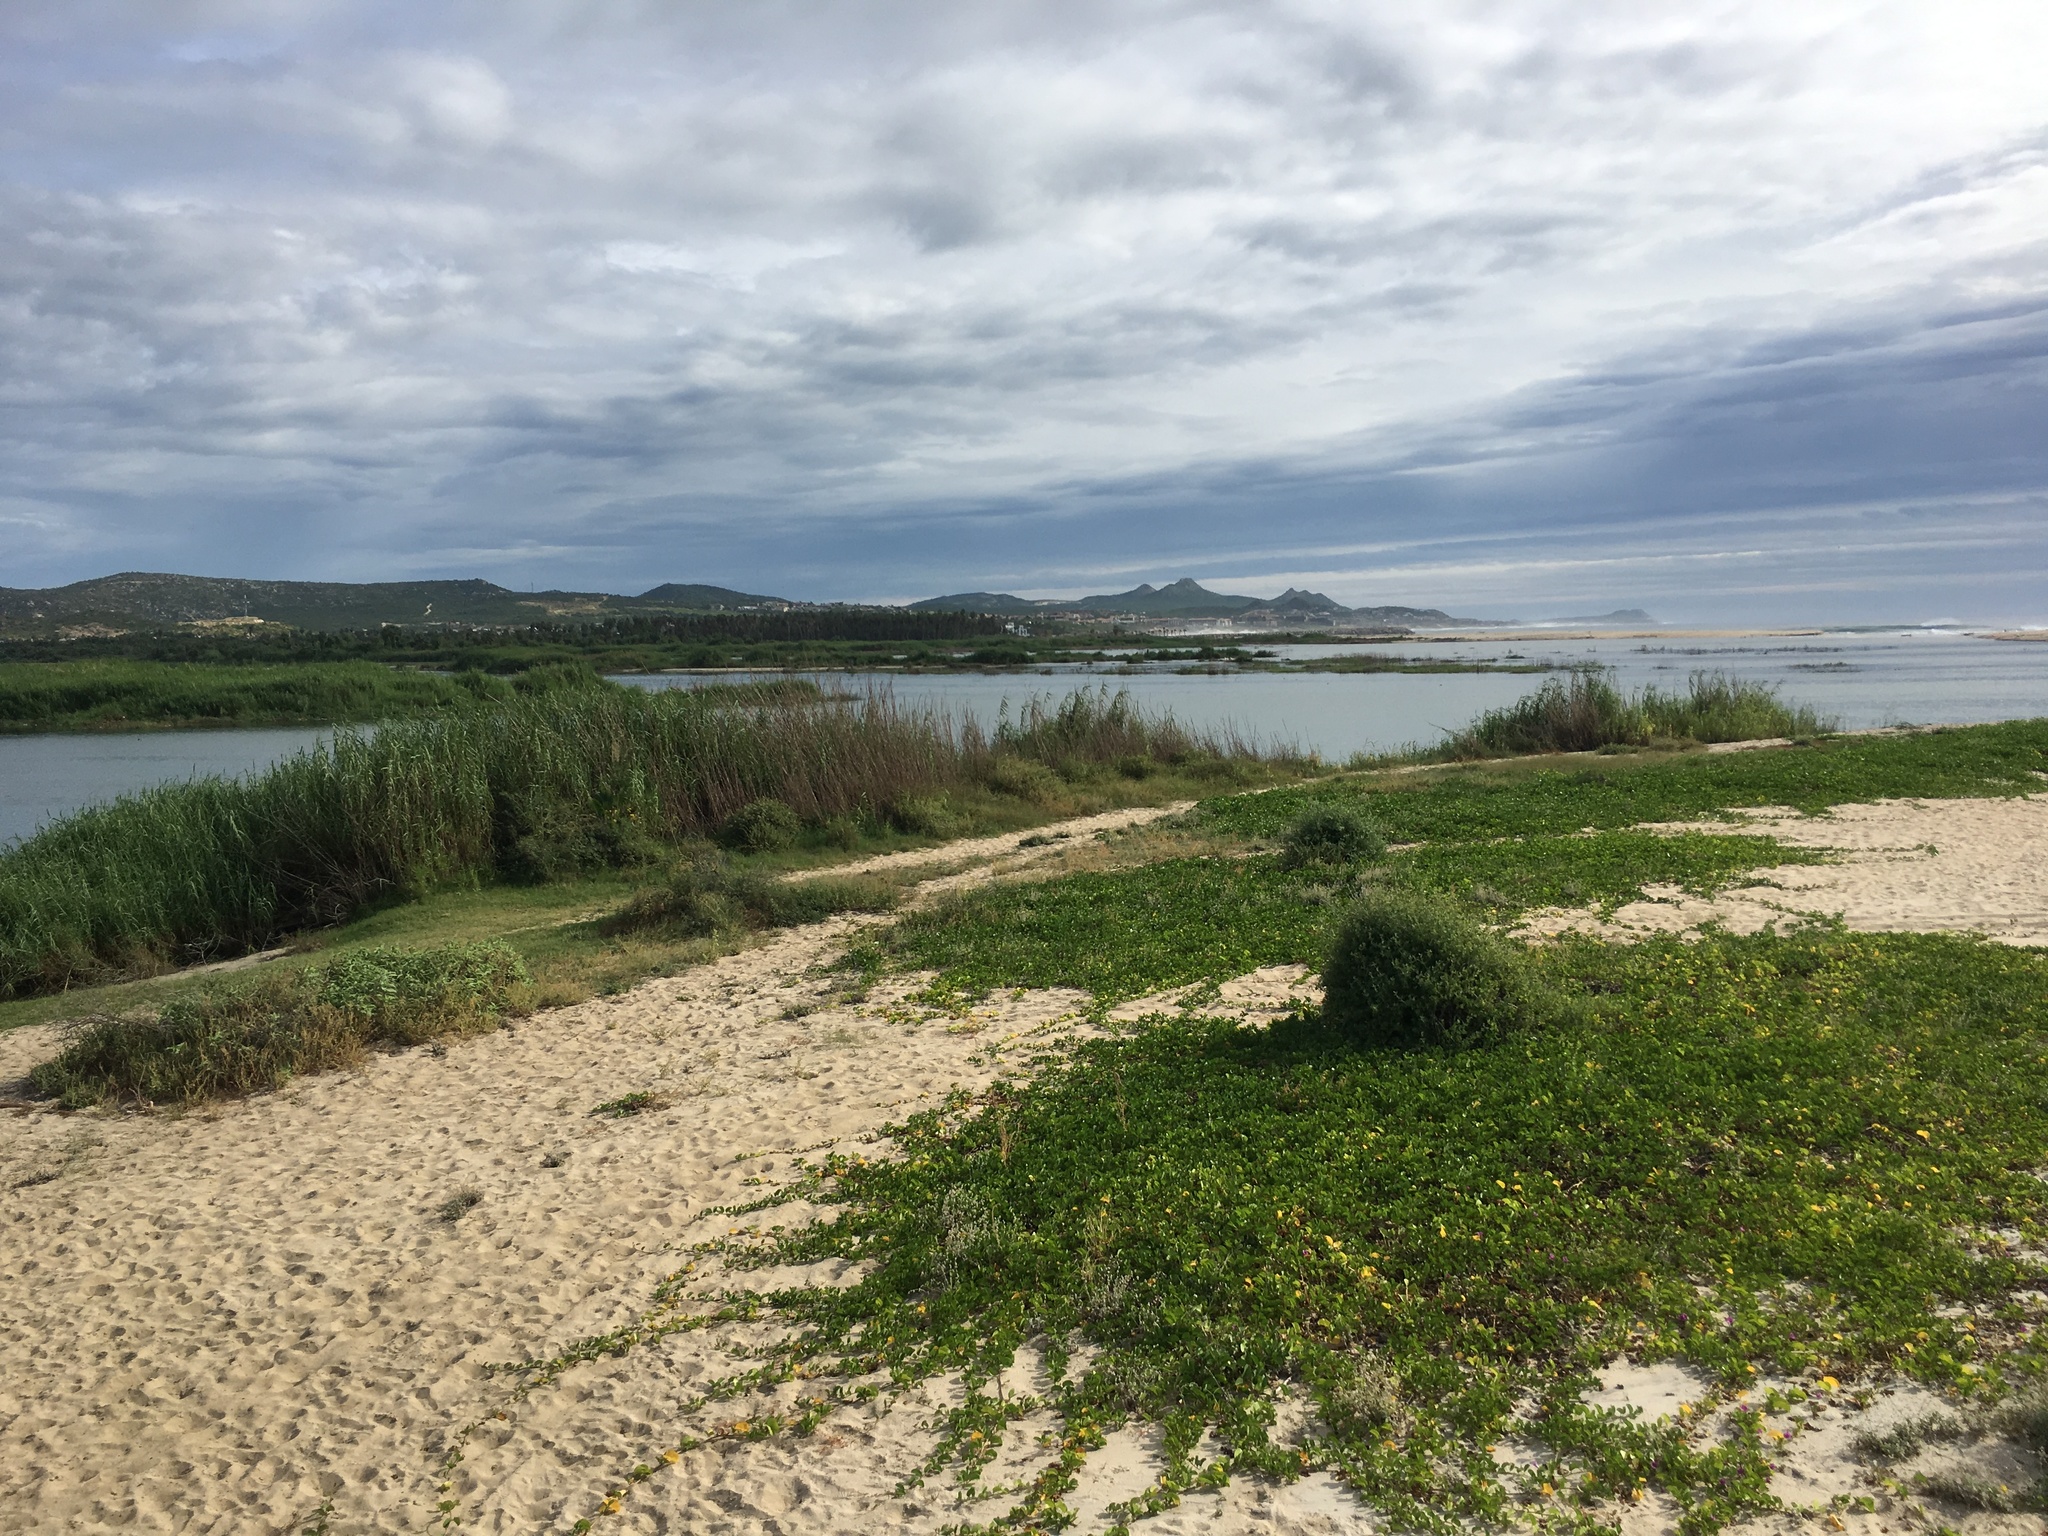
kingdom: Plantae
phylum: Tracheophyta
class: Liliopsida
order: Poales
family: Poaceae
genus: Phragmites
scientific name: Phragmites australis
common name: Common reed
